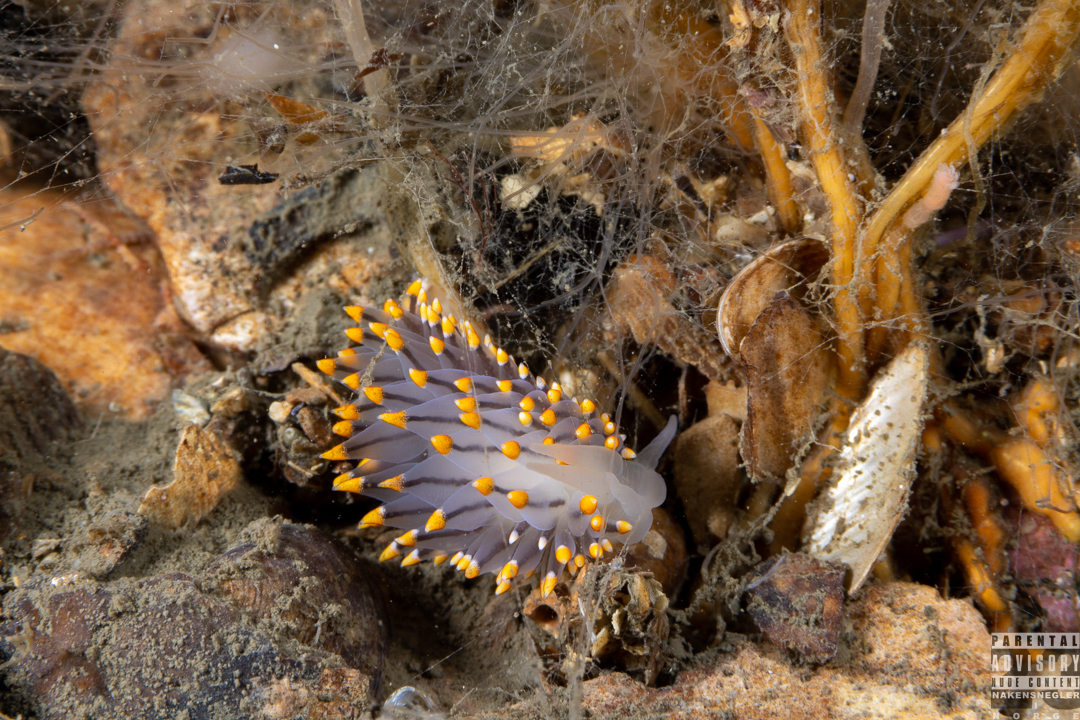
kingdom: Animalia
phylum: Mollusca
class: Gastropoda
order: Nudibranchia
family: Eubranchidae
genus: Eubranchus
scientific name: Eubranchus tricolor
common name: Painted balloon aeolis
